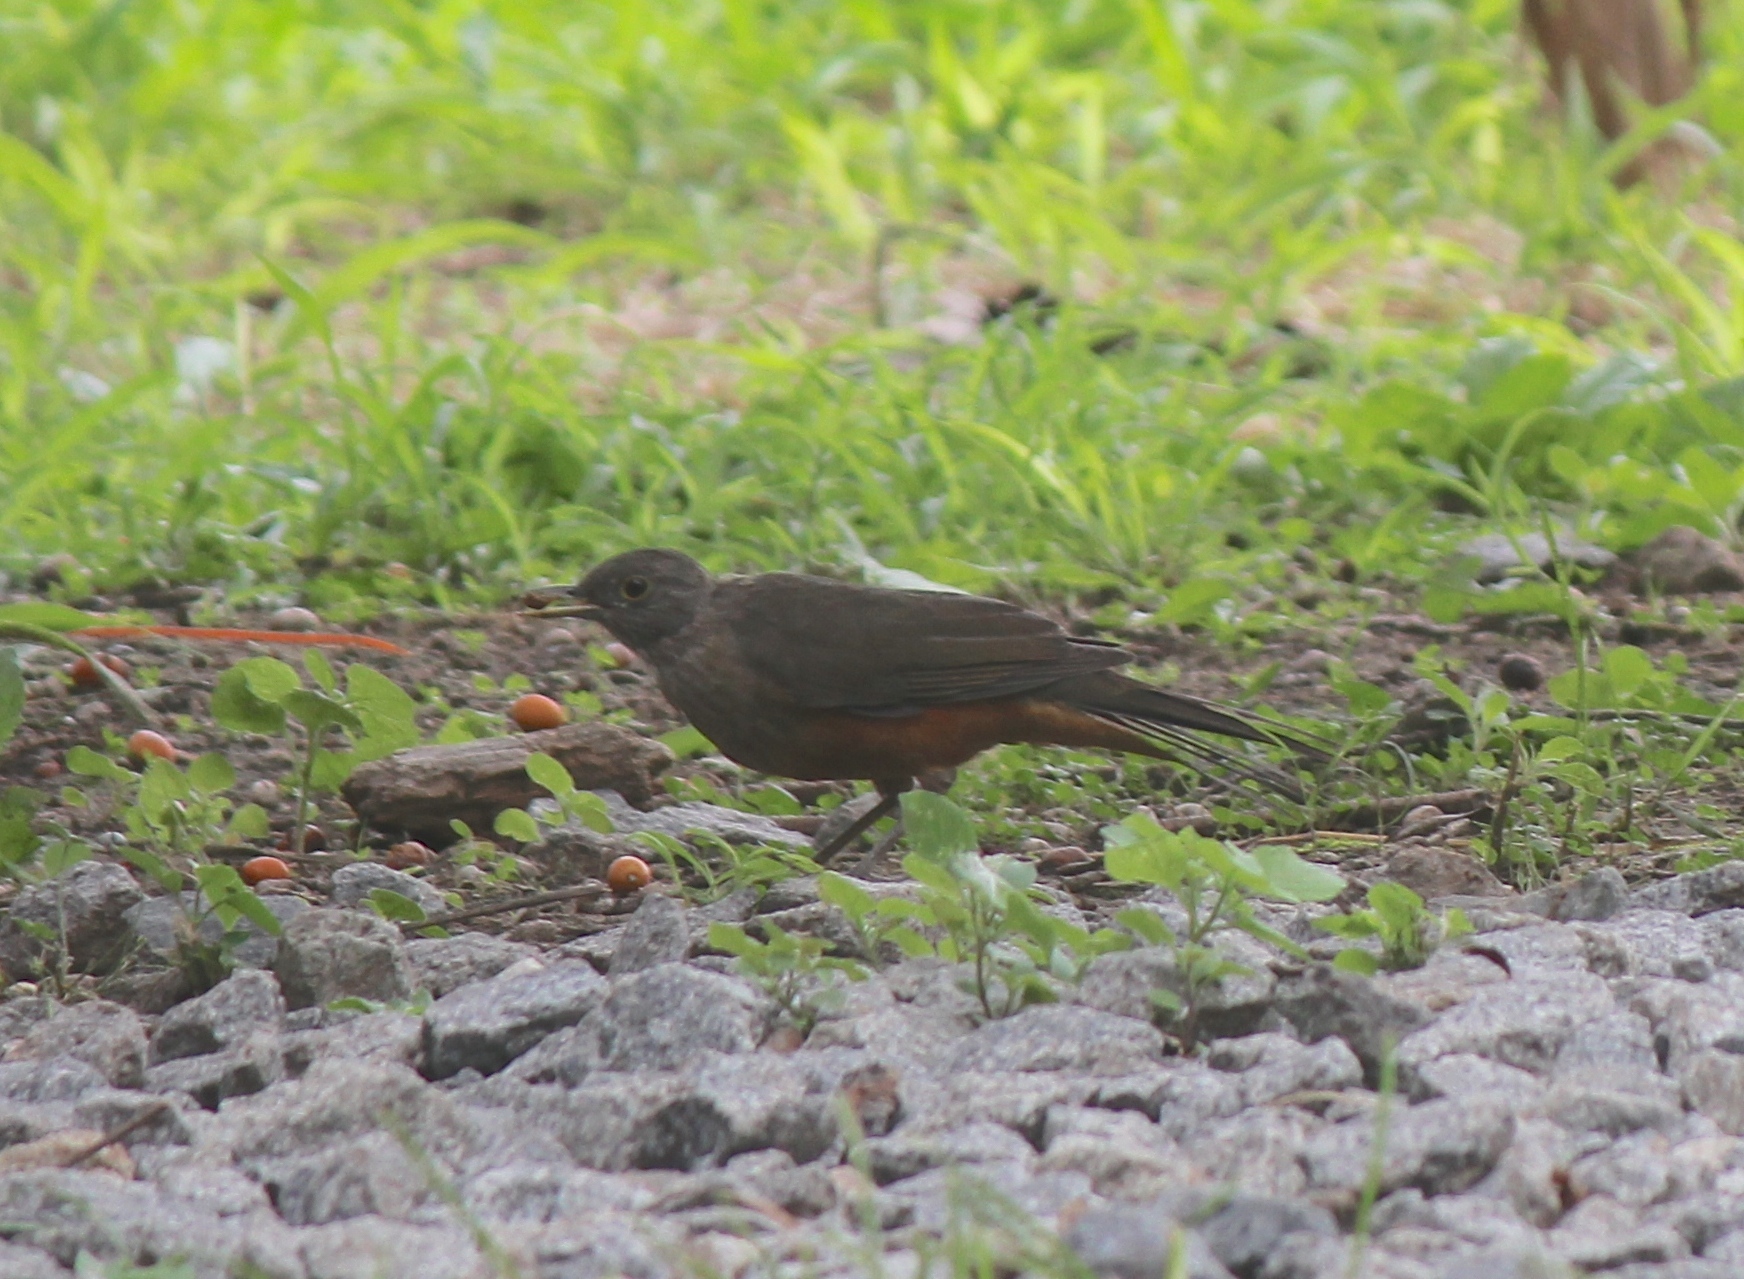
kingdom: Animalia
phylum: Chordata
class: Aves
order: Passeriformes
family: Turdidae
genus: Turdus
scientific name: Turdus rufiventris
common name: Rufous-bellied thrush
